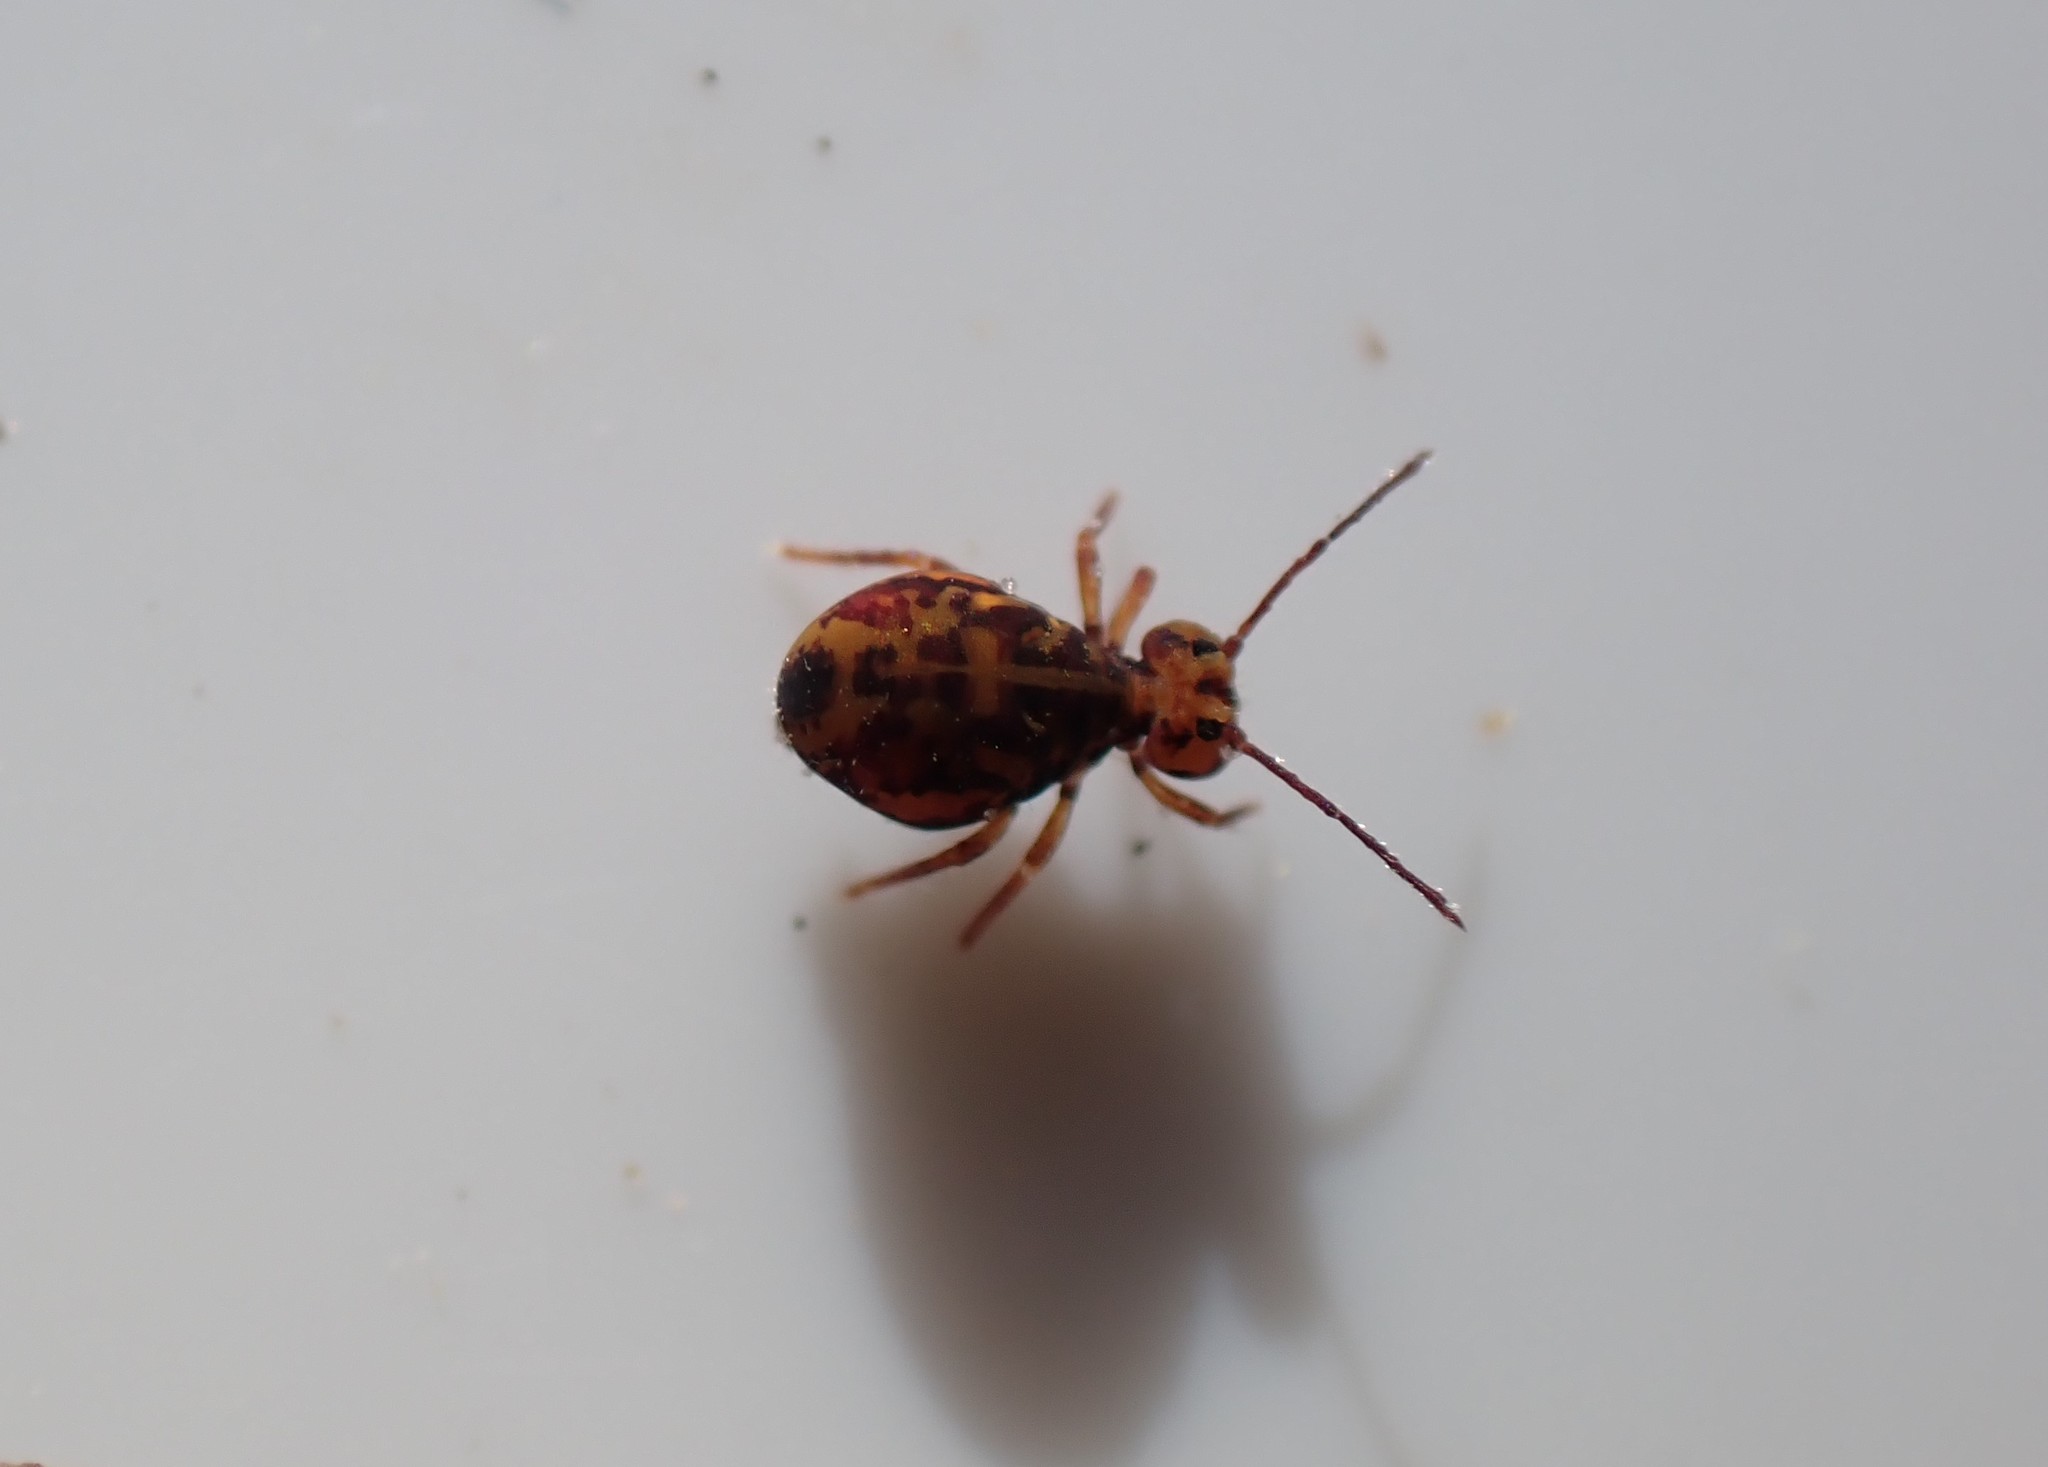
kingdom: Animalia
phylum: Arthropoda
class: Collembola
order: Symphypleona
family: Dicyrtomidae
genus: Dicyrtomina
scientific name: Dicyrtomina ornata
